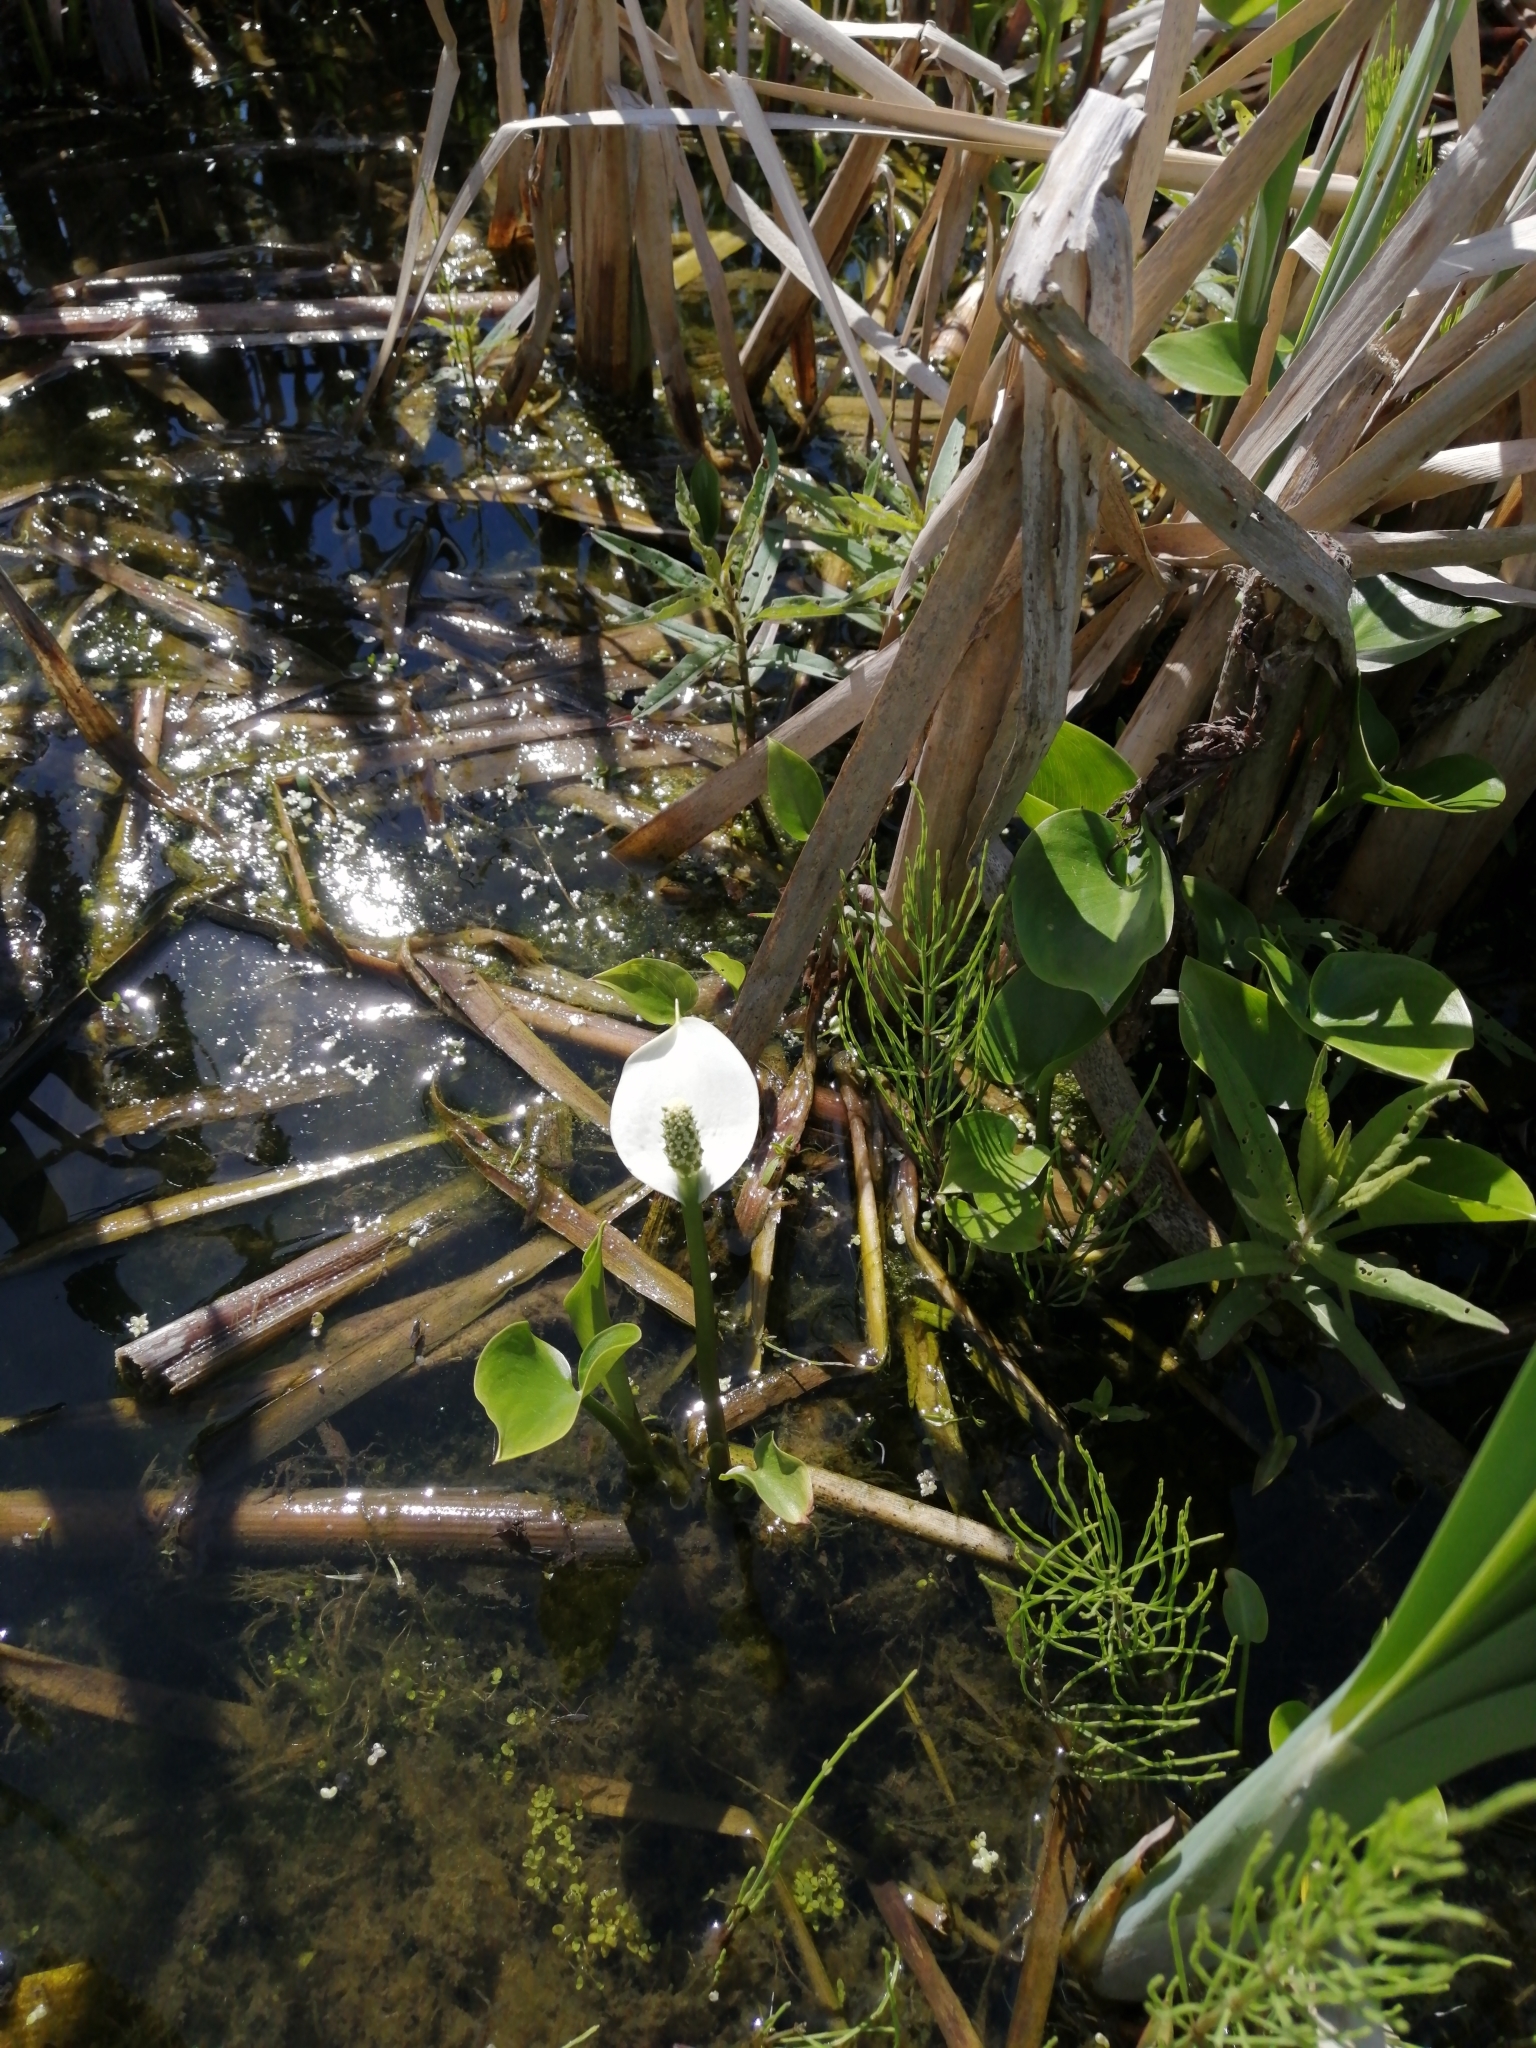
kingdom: Plantae
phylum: Tracheophyta
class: Liliopsida
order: Alismatales
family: Araceae
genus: Calla
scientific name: Calla palustris
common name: Bog arum
